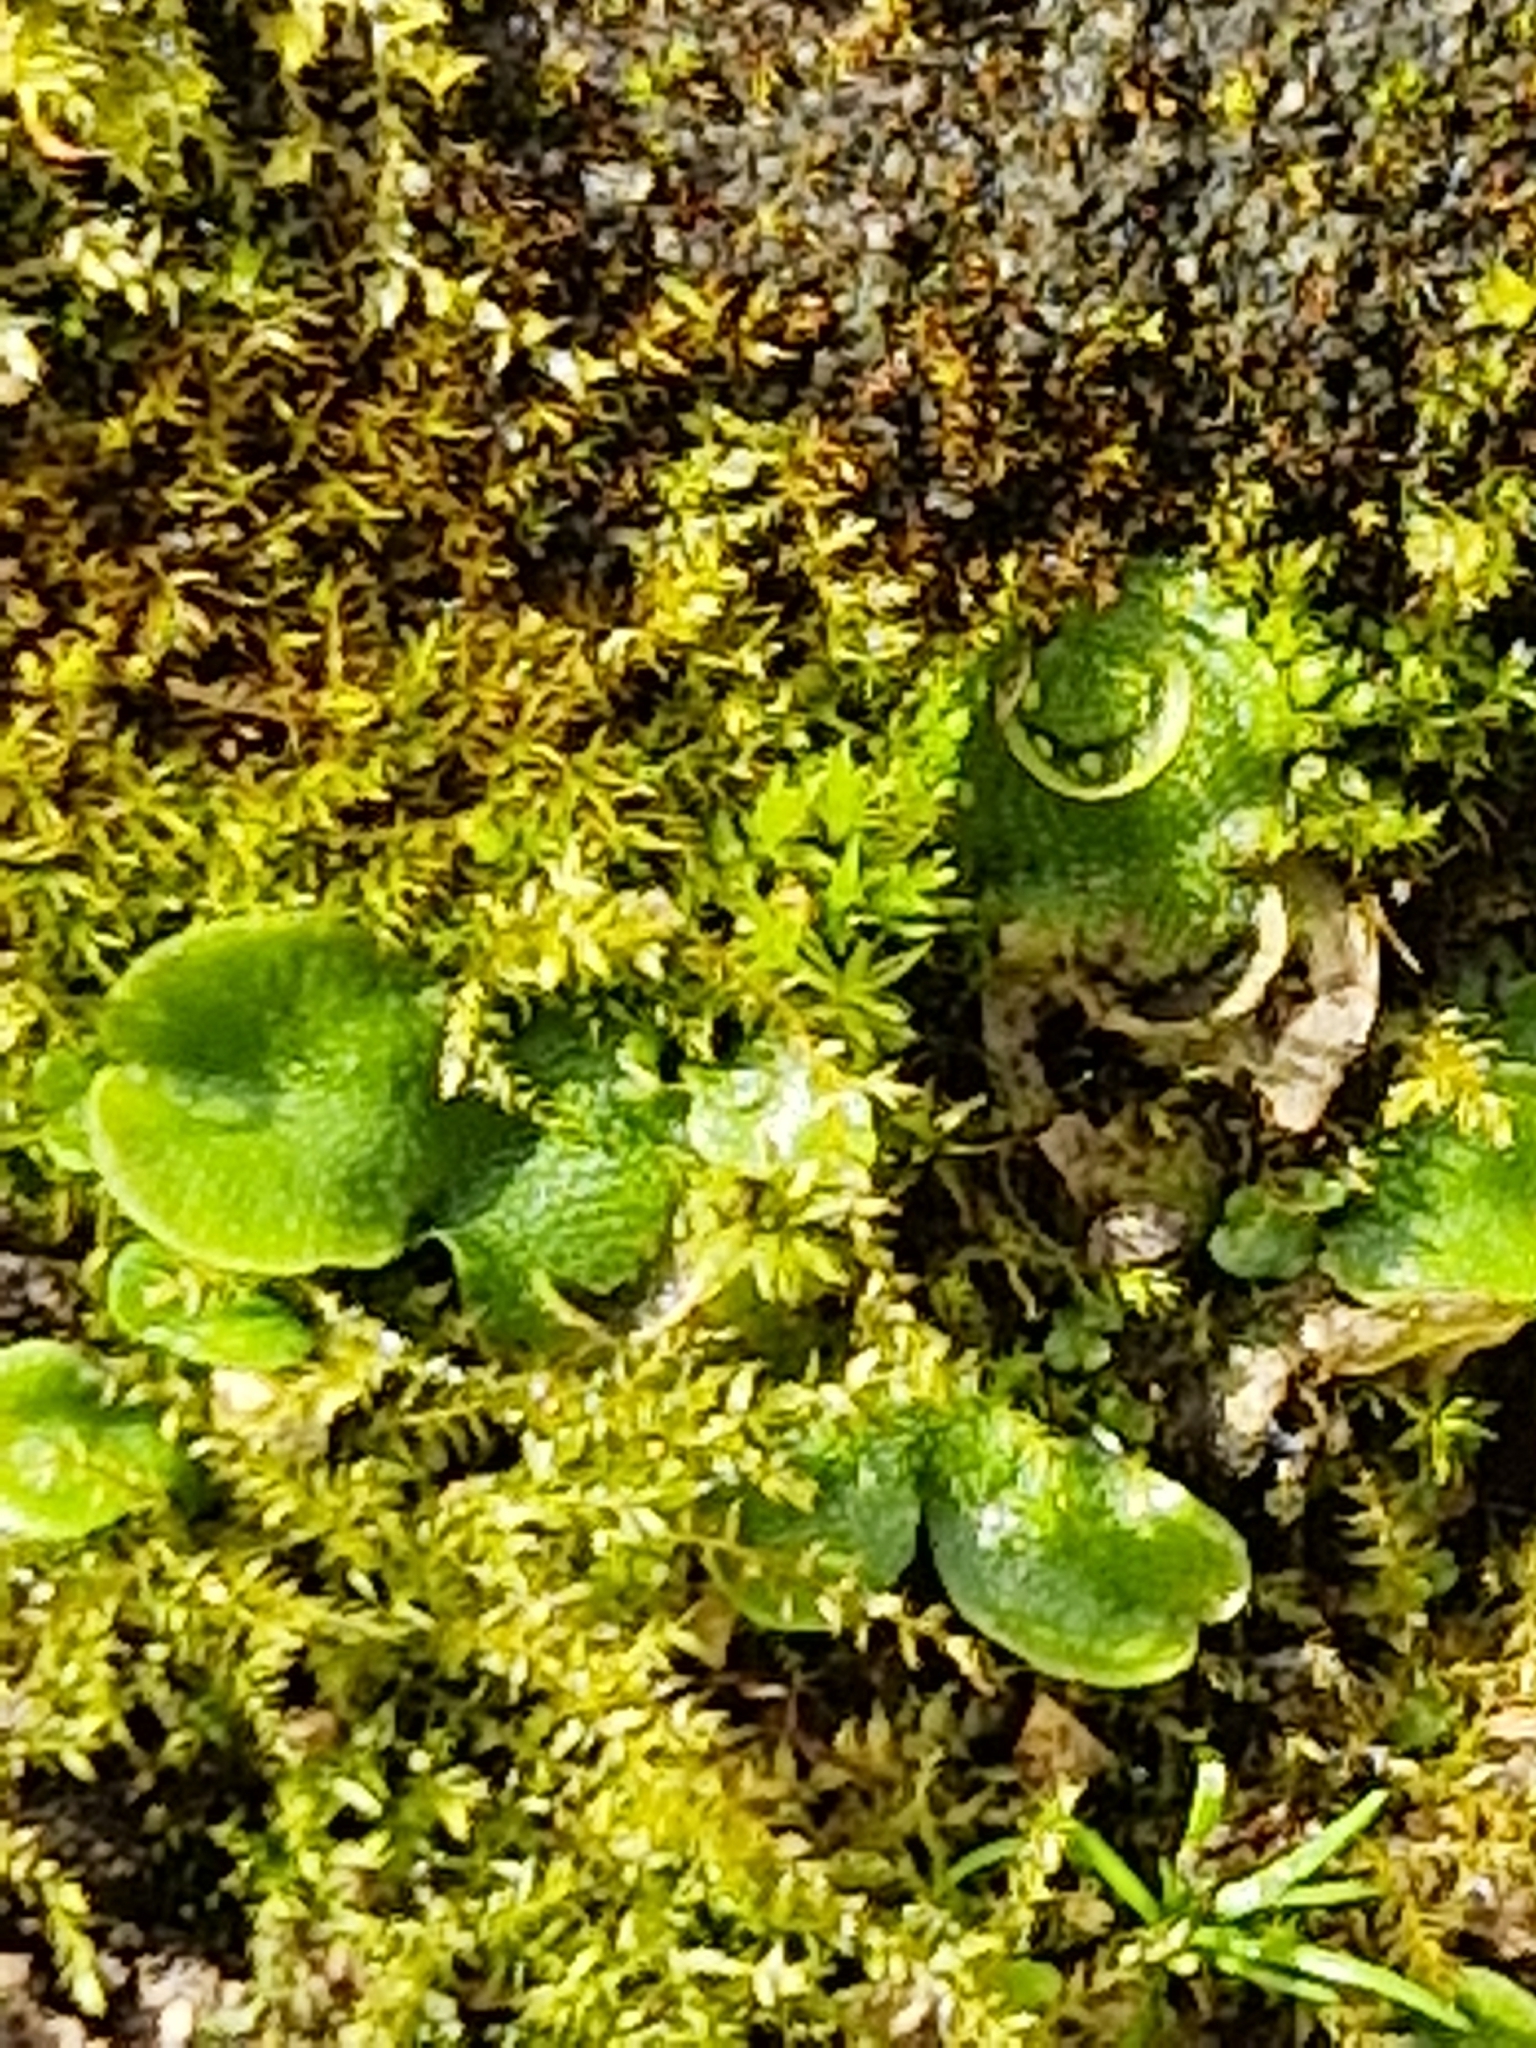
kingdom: Plantae
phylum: Marchantiophyta
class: Marchantiopsida
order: Lunulariales
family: Lunulariaceae
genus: Lunularia
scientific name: Lunularia cruciata
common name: Crescent-cup liverwort
